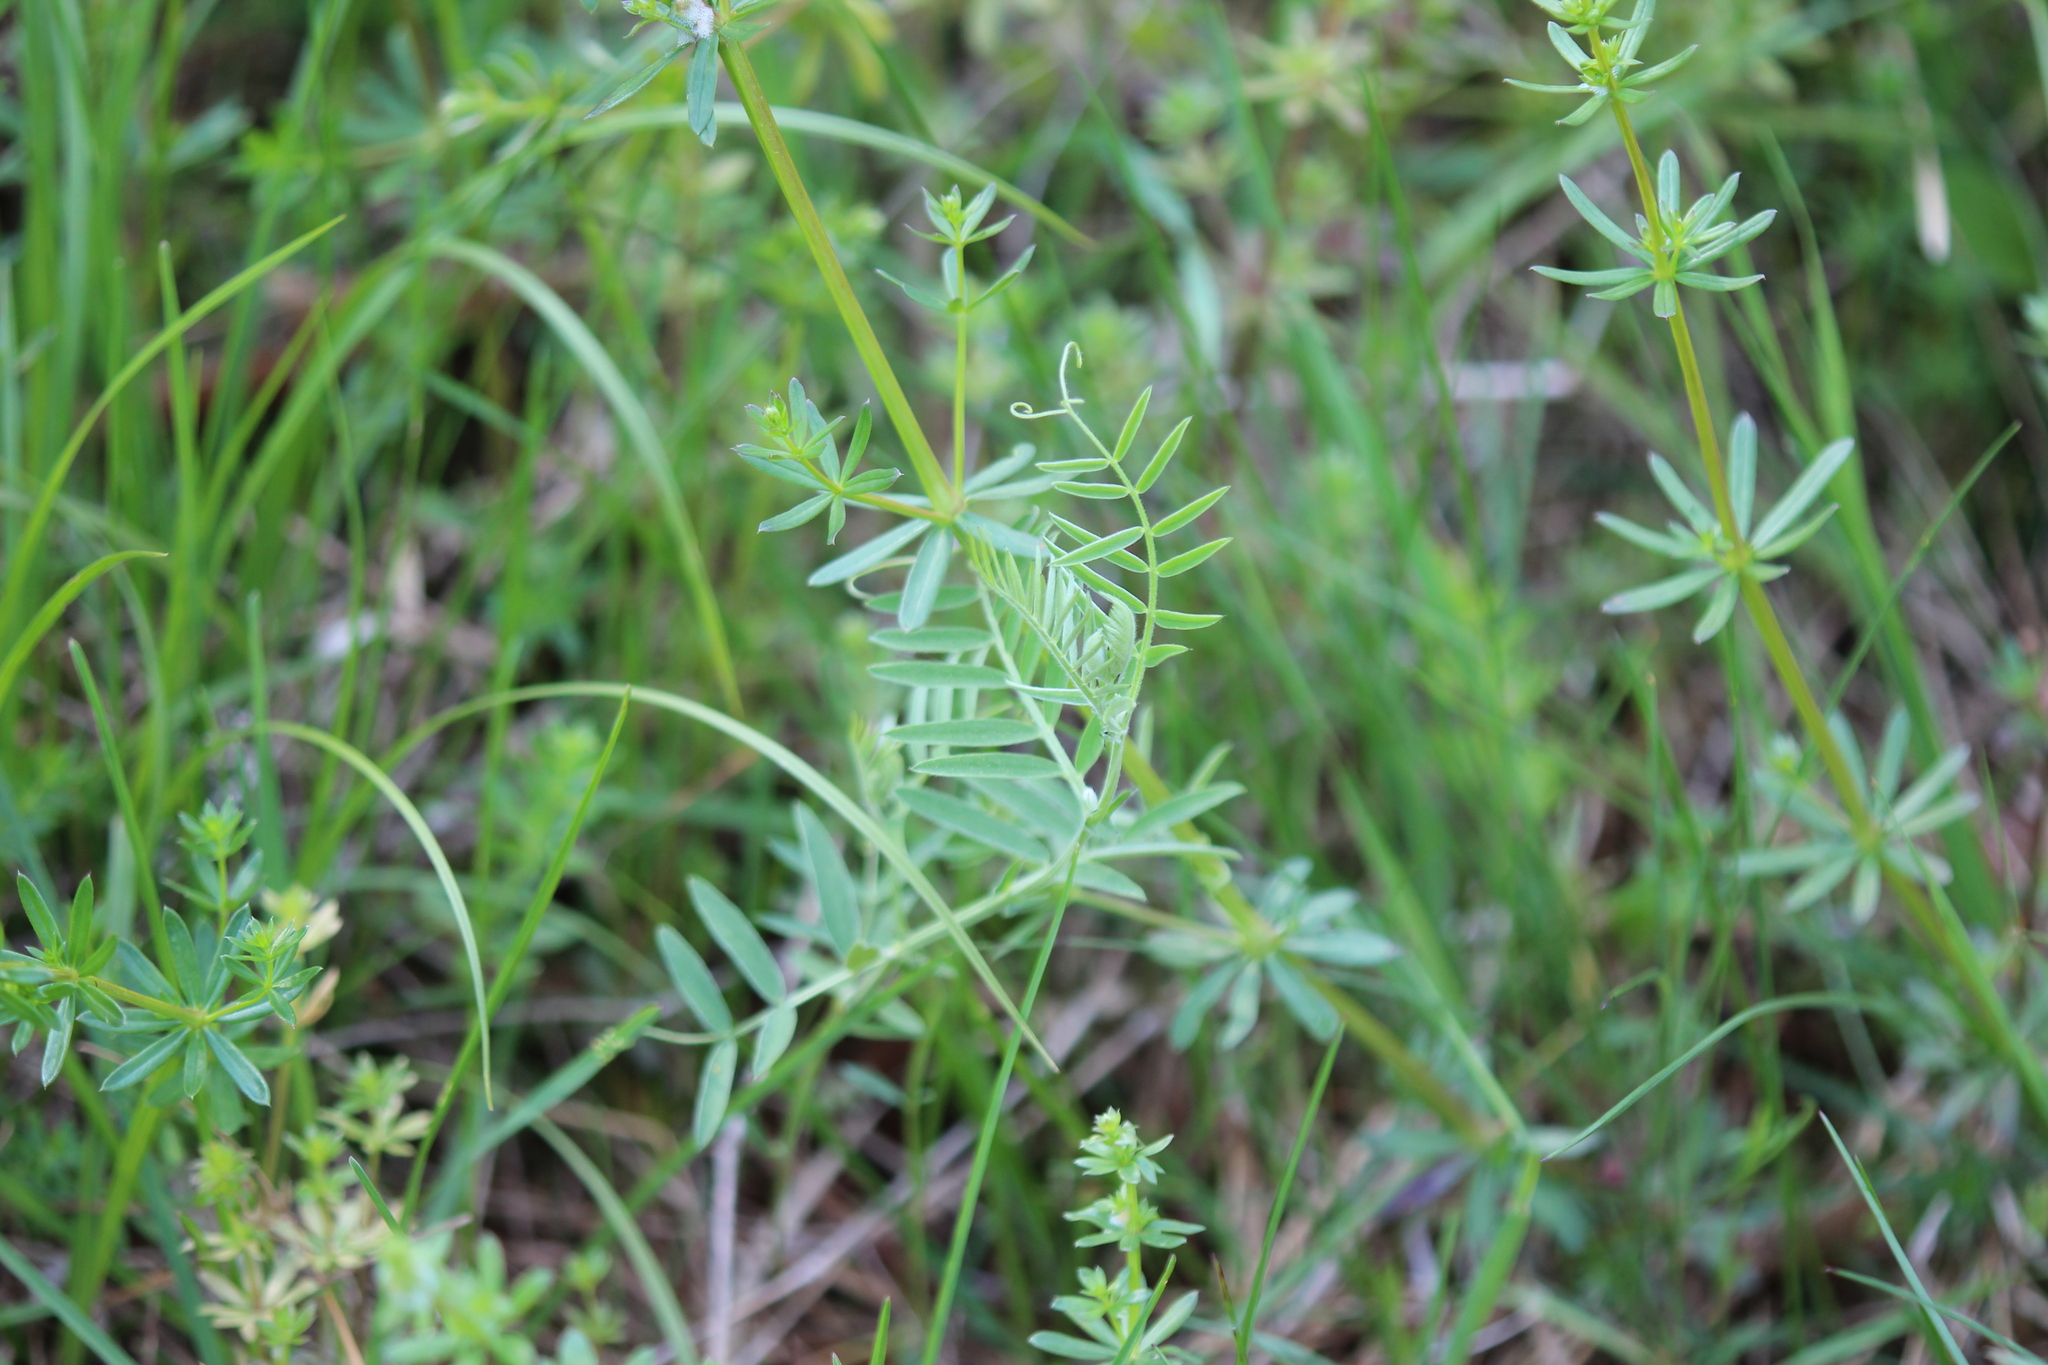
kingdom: Plantae
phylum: Tracheophyta
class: Magnoliopsida
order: Fabales
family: Fabaceae
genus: Vicia
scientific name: Vicia cracca
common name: Bird vetch
